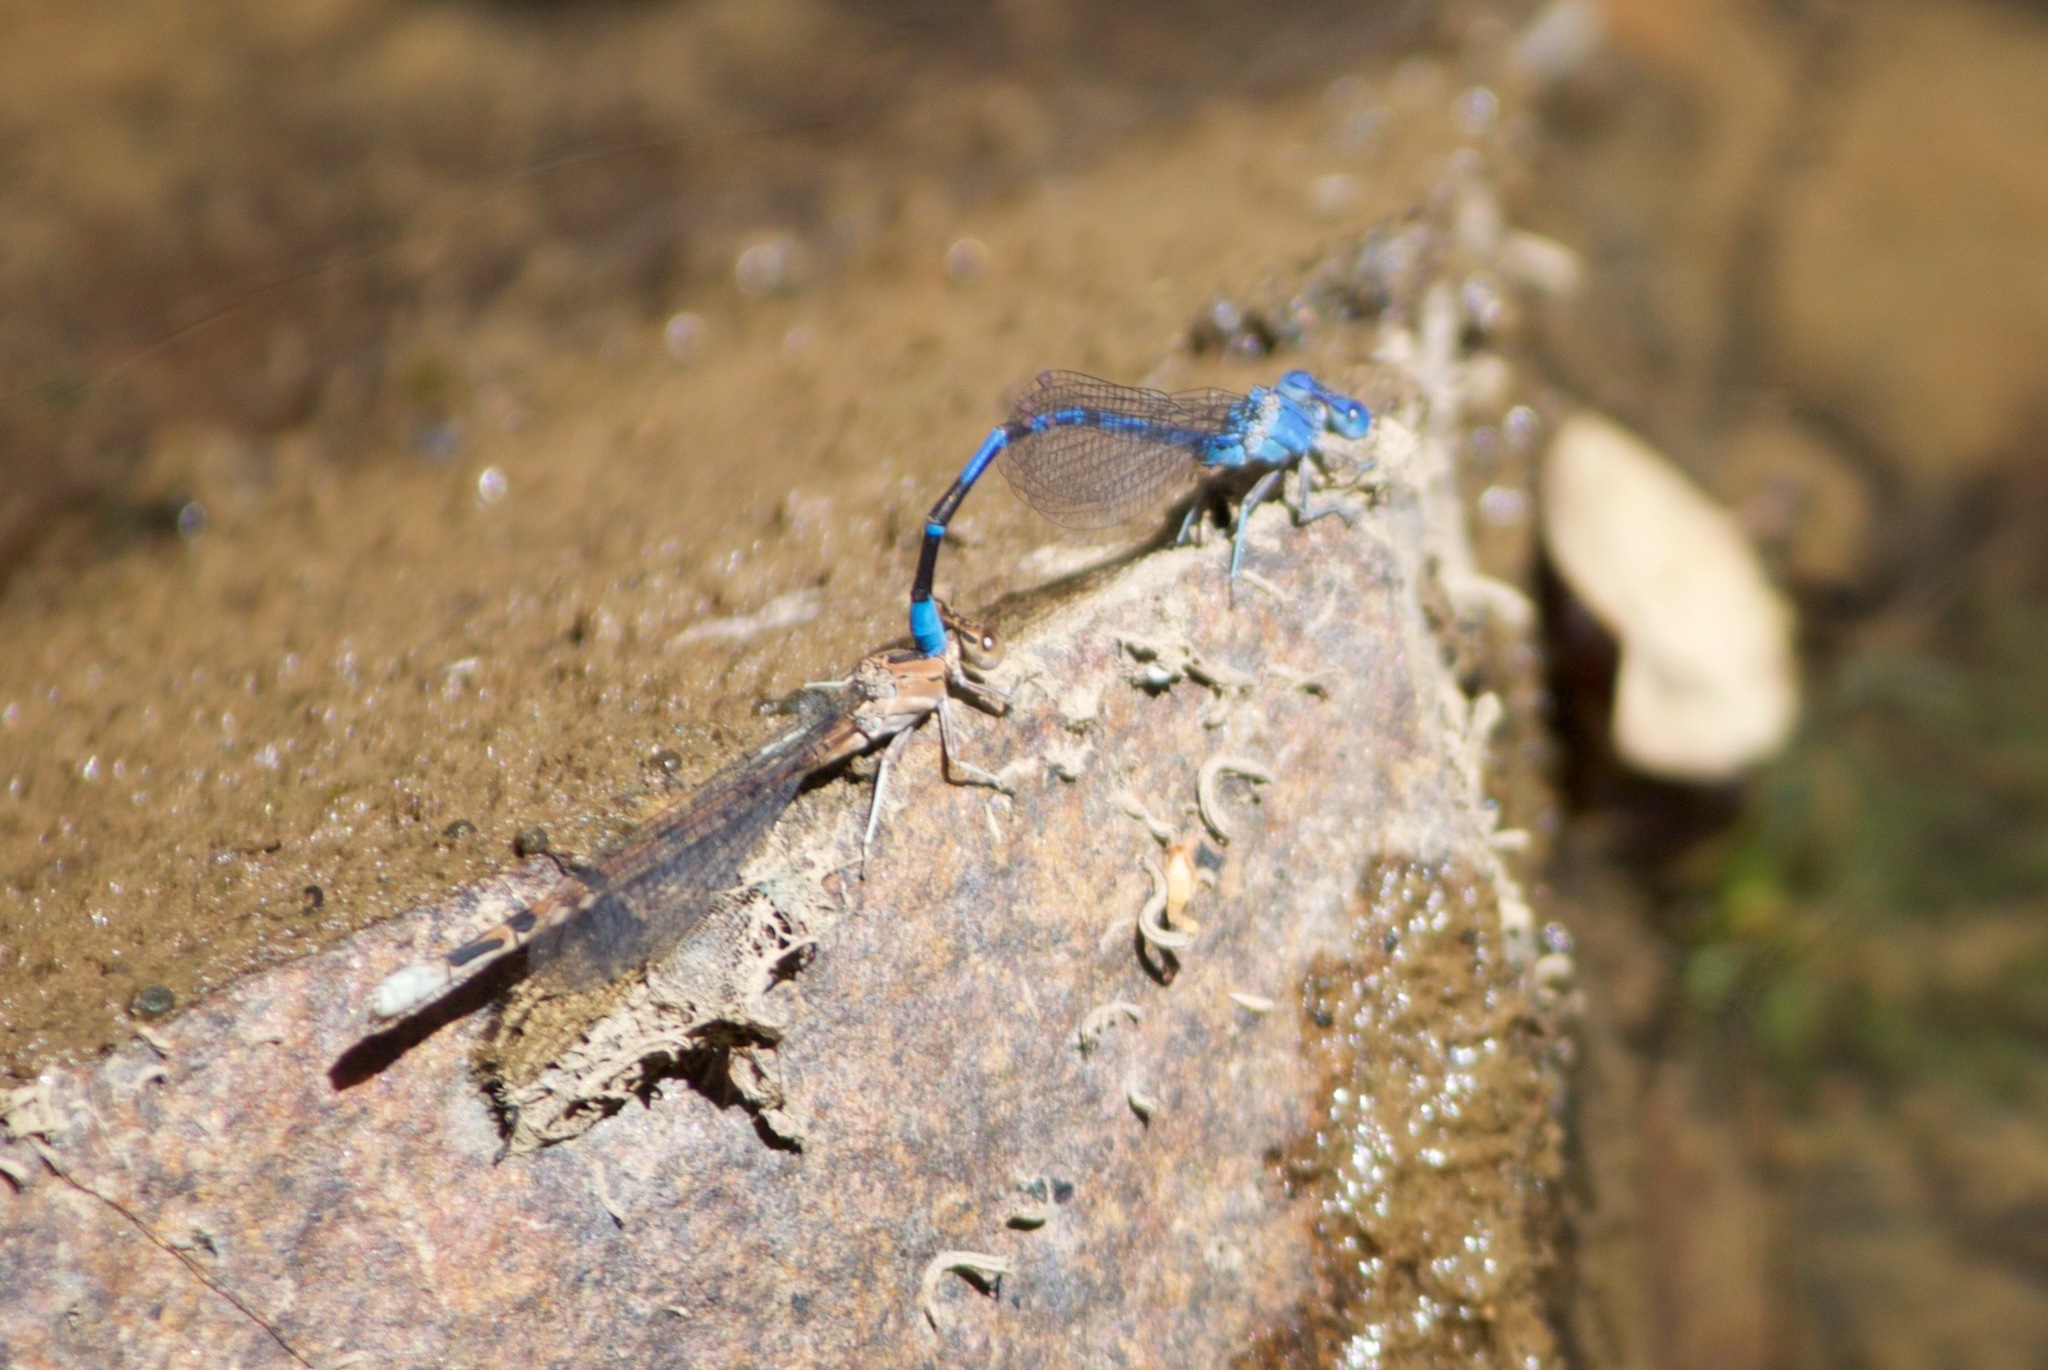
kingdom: Animalia
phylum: Arthropoda
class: Insecta
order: Odonata
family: Coenagrionidae
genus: Argia
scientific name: Argia vivida
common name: Vivid dancer
